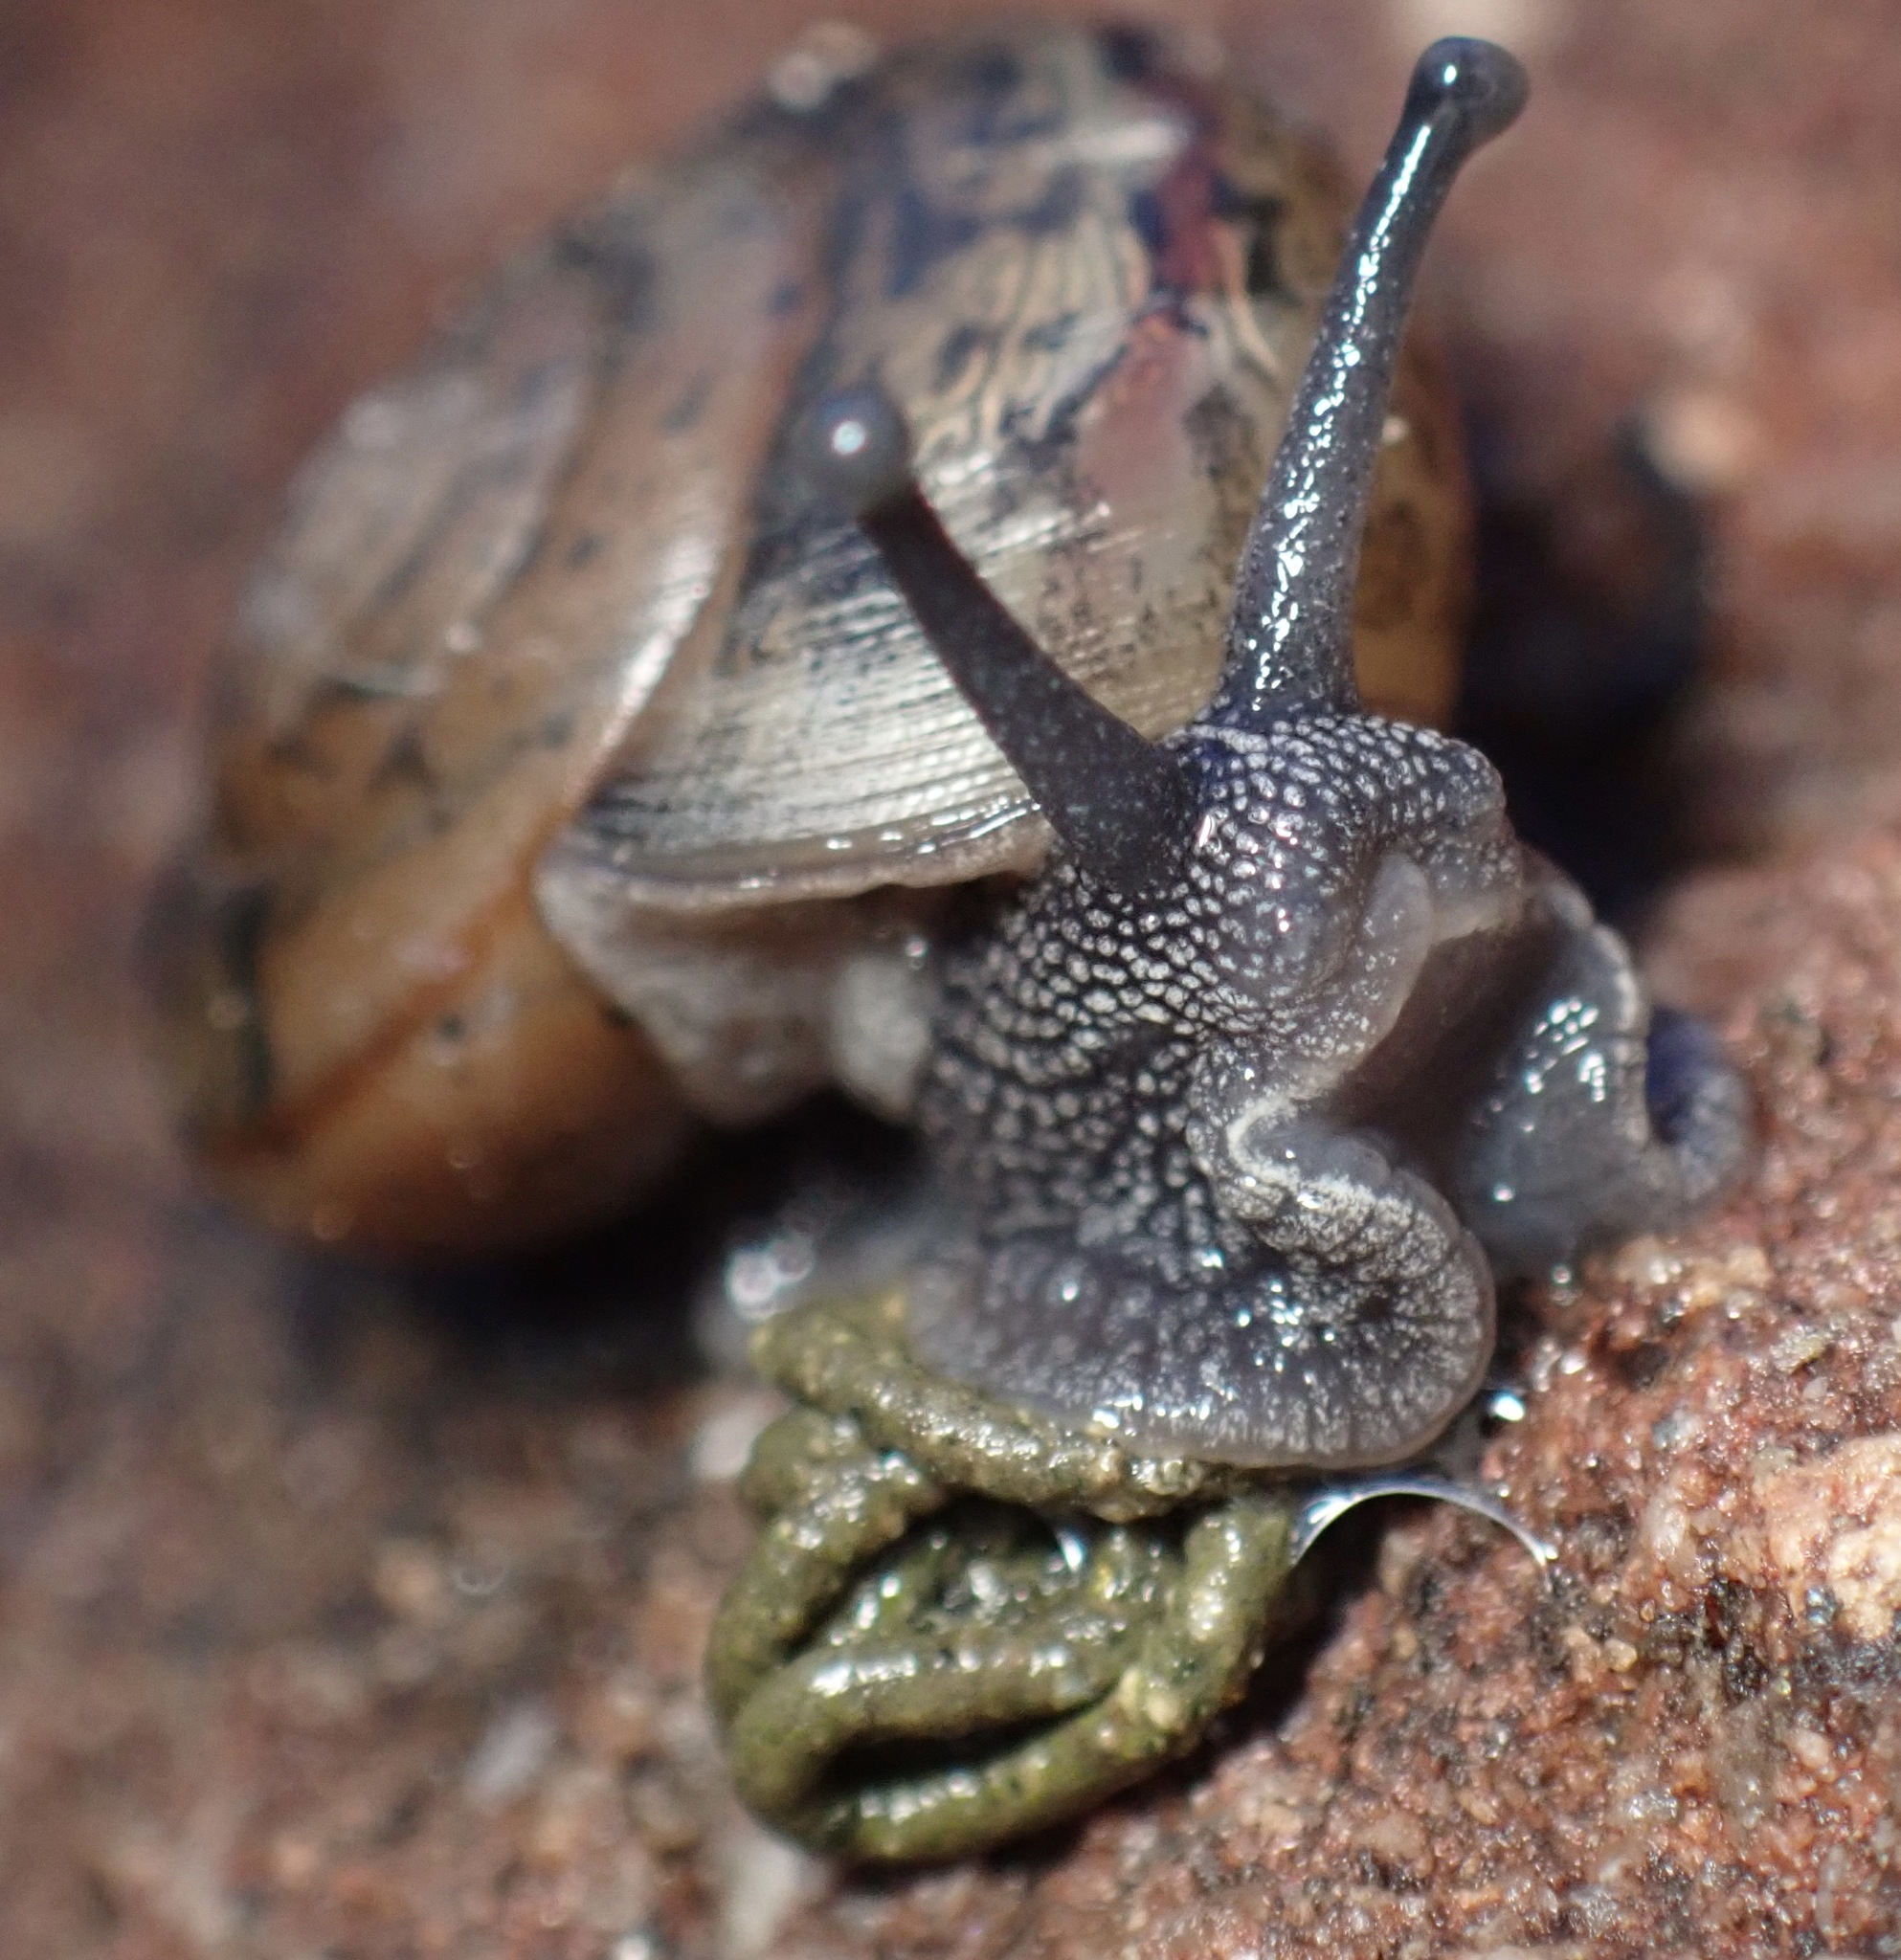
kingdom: Animalia
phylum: Mollusca
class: Gastropoda
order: Stylommatophora
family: Xanthonychidae
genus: Helminthoglypta
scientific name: Helminthoglypta vasquezi
